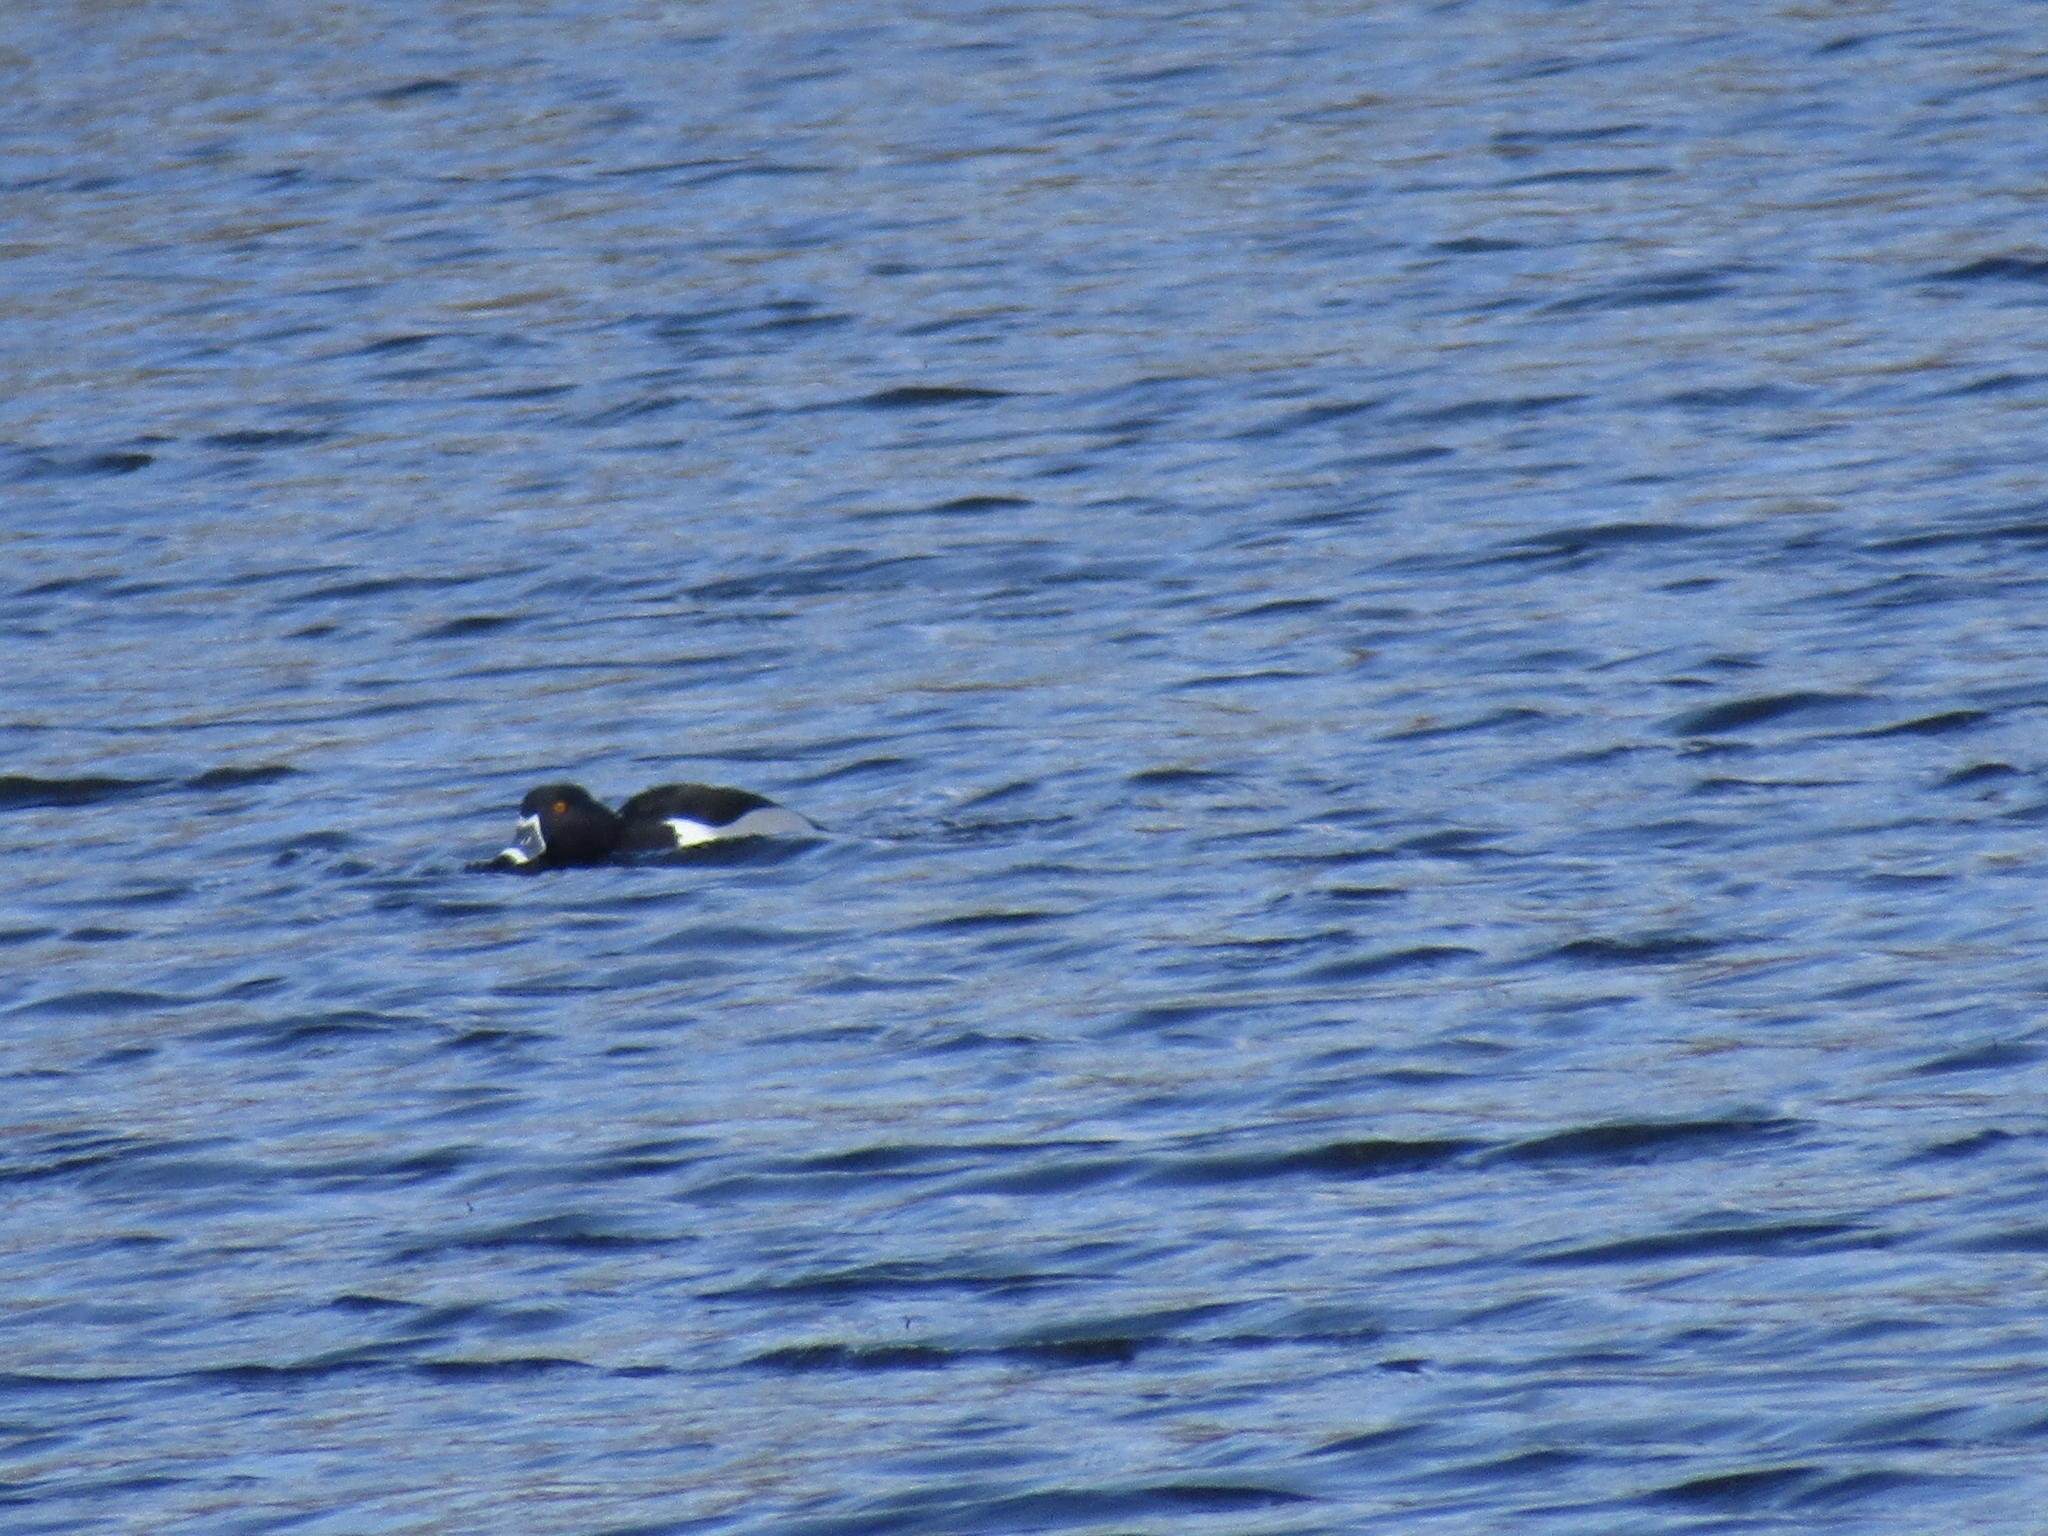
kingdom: Animalia
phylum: Chordata
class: Aves
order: Anseriformes
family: Anatidae
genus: Aythya
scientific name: Aythya collaris
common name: Ring-necked duck
